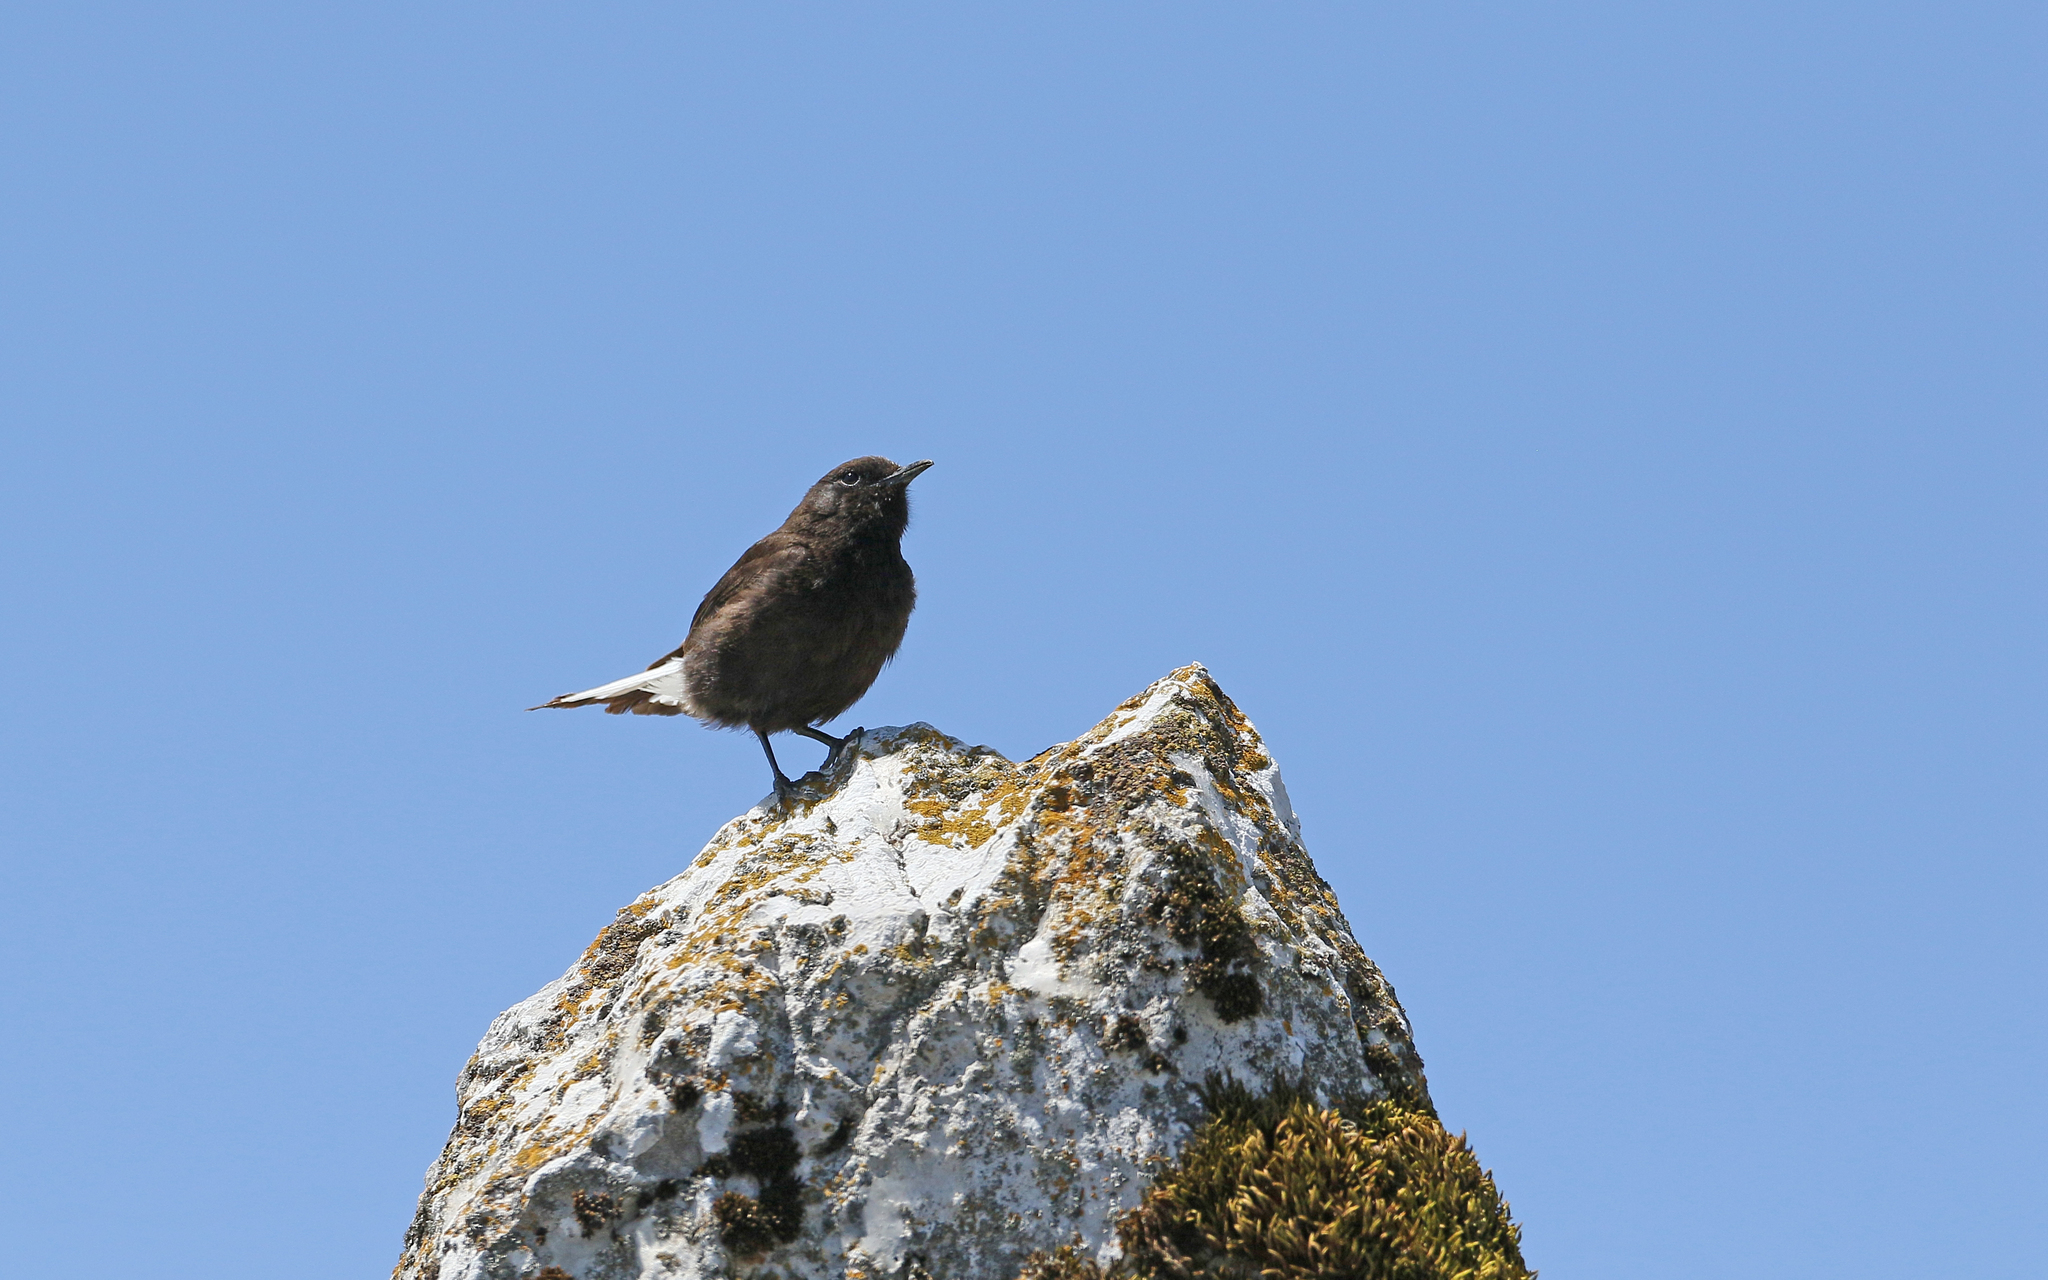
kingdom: Animalia
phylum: Chordata
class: Aves
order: Passeriformes
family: Muscicapidae
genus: Oenanthe
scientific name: Oenanthe leucura
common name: Black wheatear
